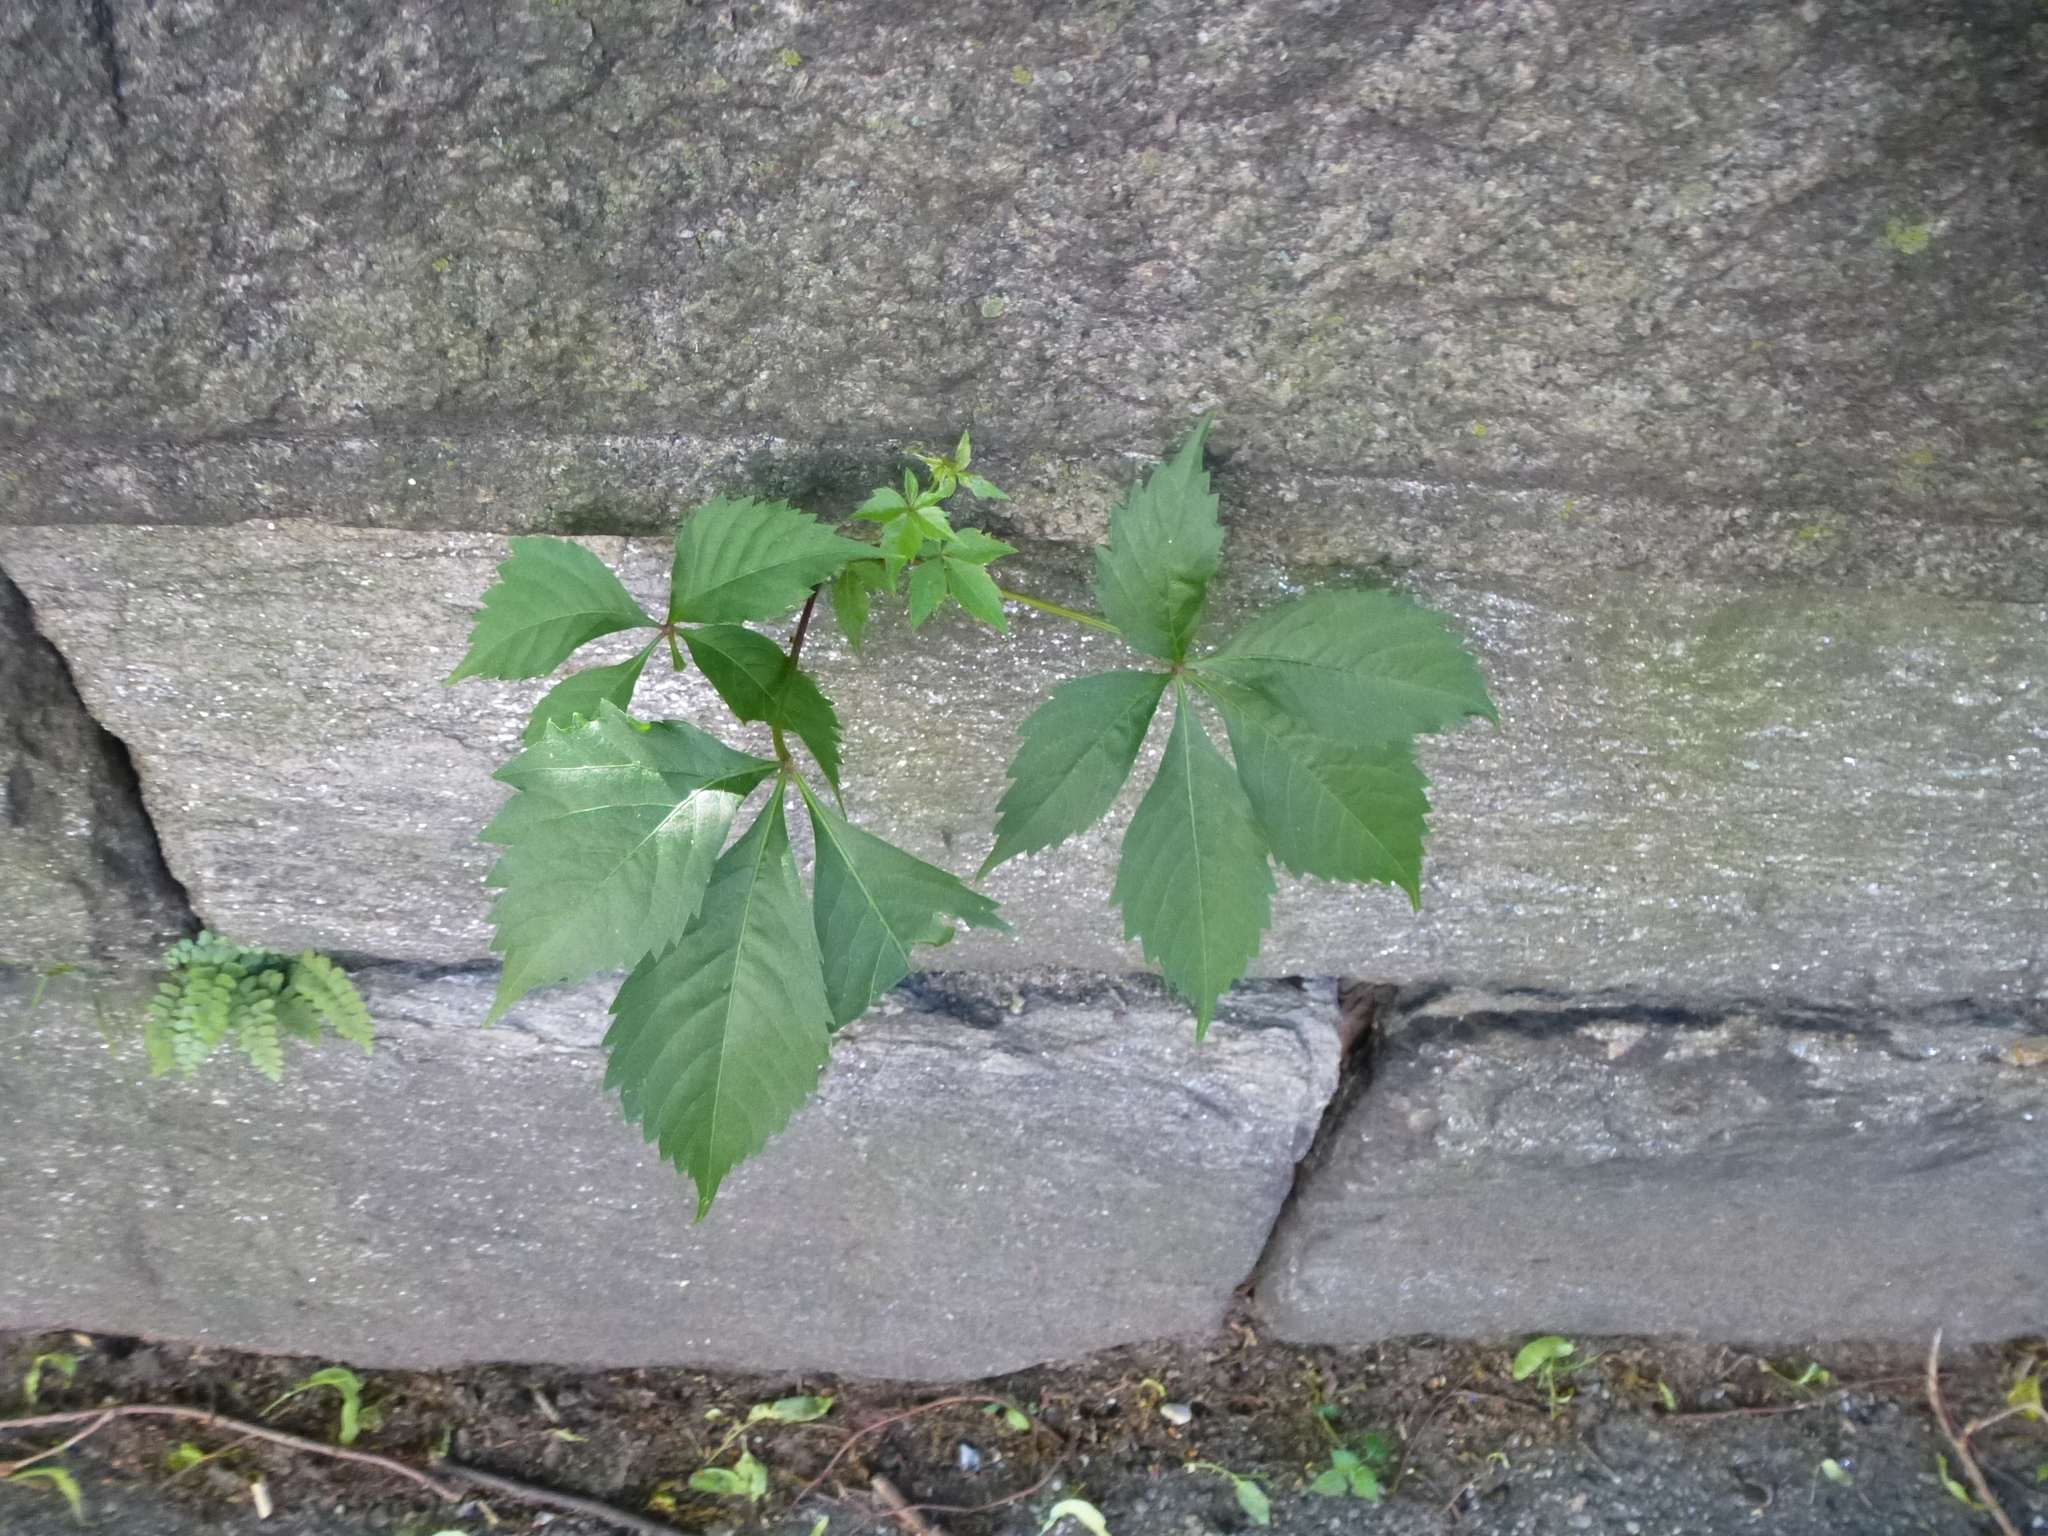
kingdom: Plantae
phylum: Tracheophyta
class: Magnoliopsida
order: Vitales
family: Vitaceae
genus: Parthenocissus
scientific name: Parthenocissus quinquefolia
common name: Virginia-creeper
